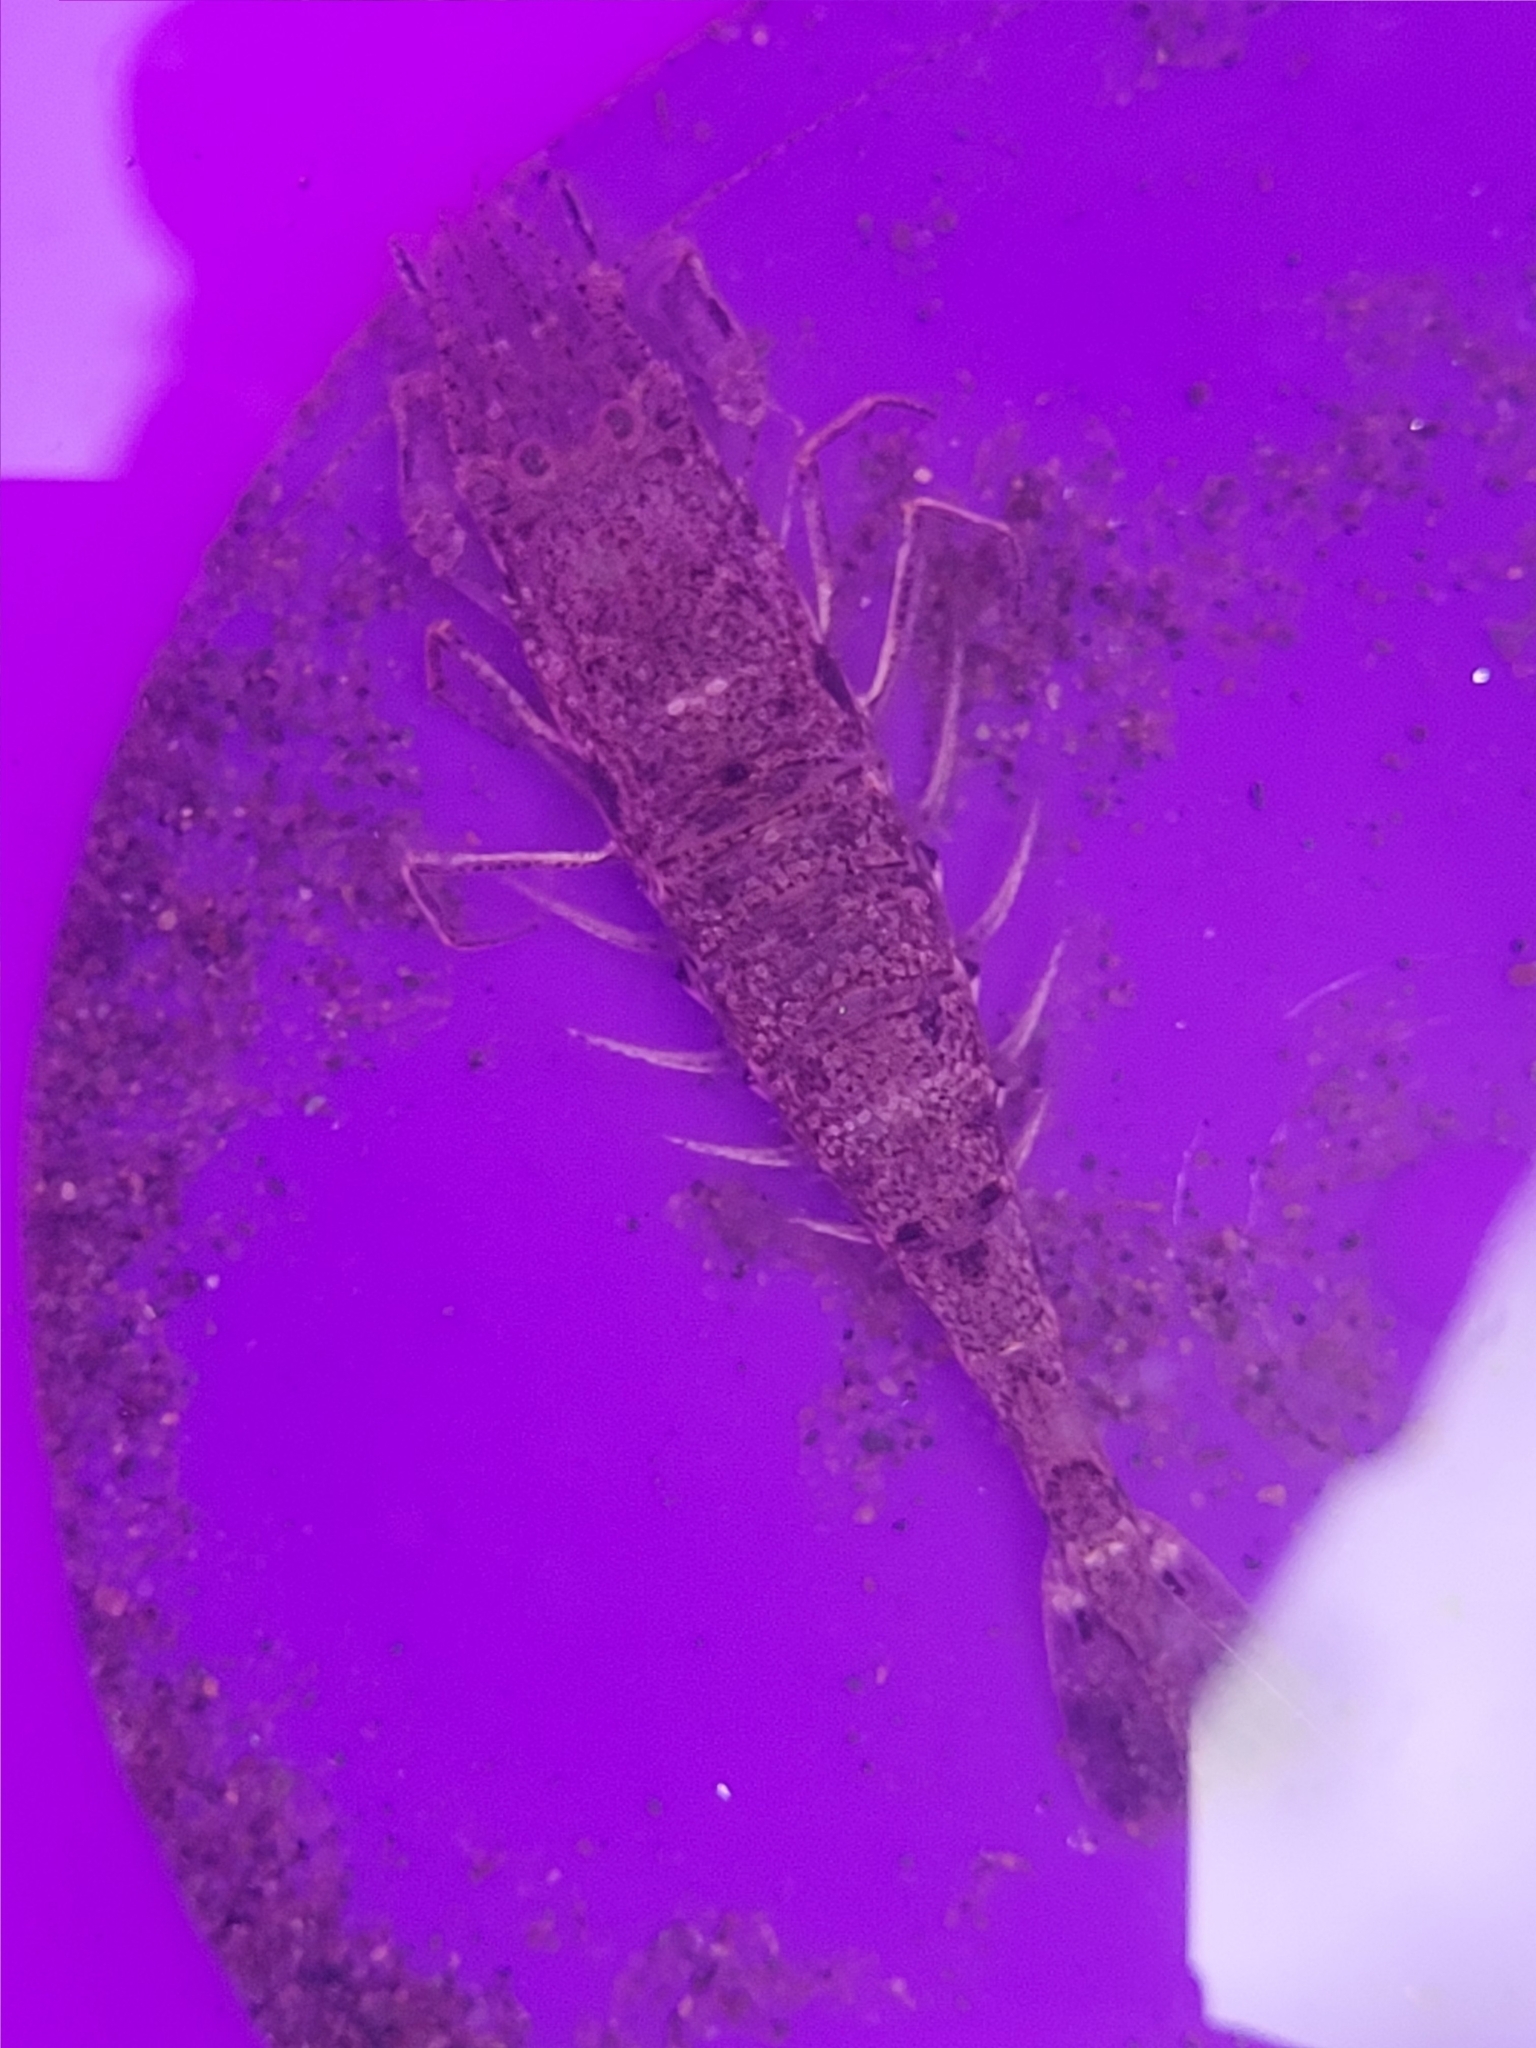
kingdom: Animalia
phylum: Arthropoda
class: Malacostraca
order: Decapoda
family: Crangonidae
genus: Crangon
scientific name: Crangon septemspinosa
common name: Bail shrimp
